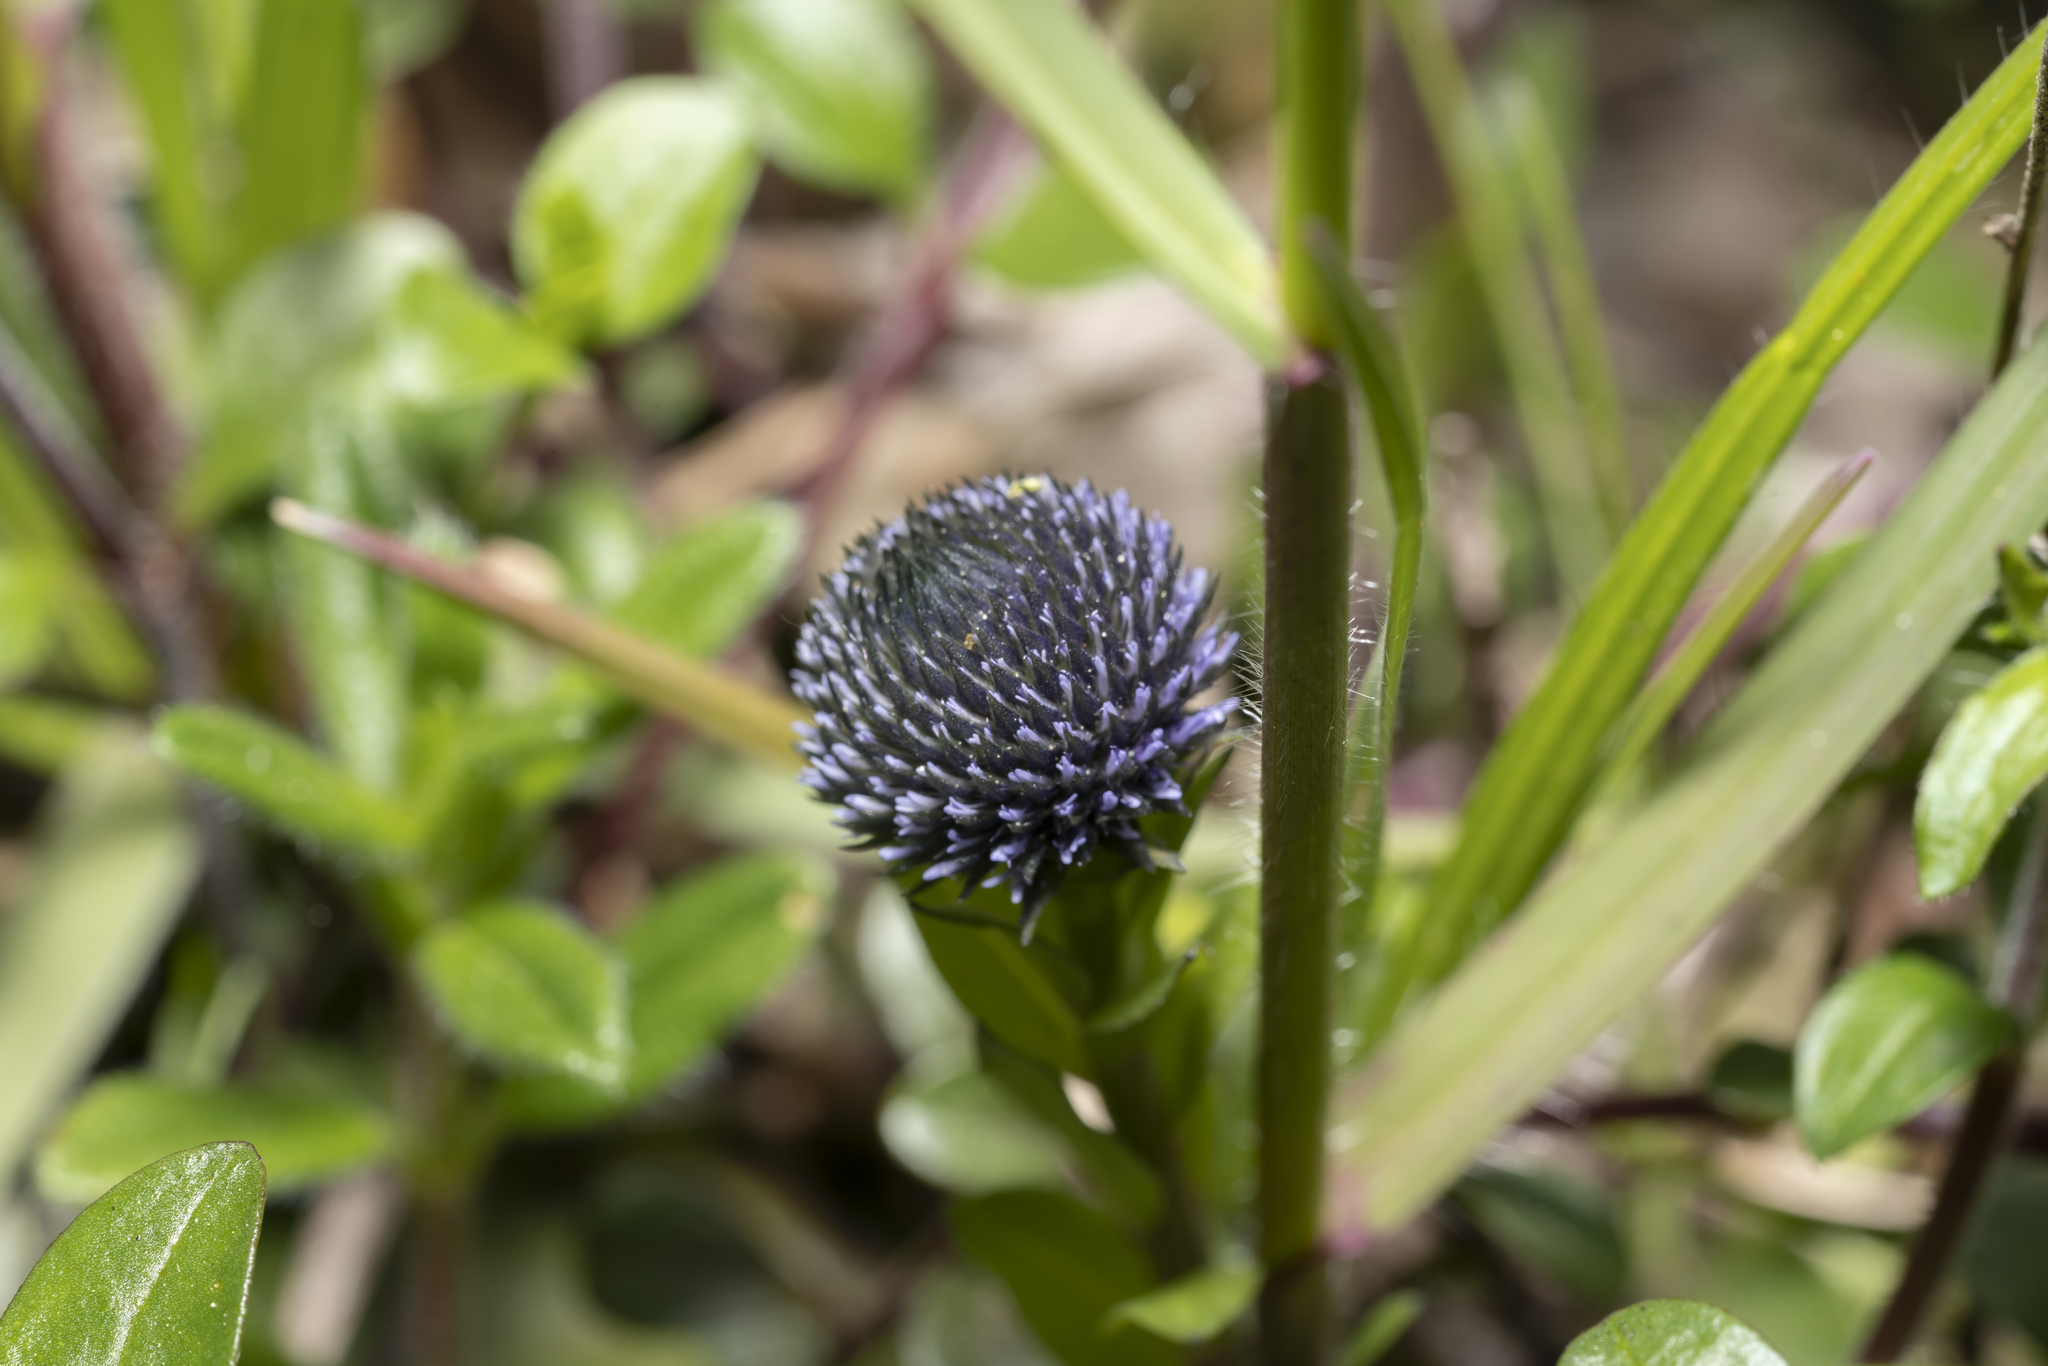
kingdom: Plantae
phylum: Tracheophyta
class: Magnoliopsida
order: Lamiales
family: Plantaginaceae
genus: Globularia
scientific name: Globularia bisnagarica
